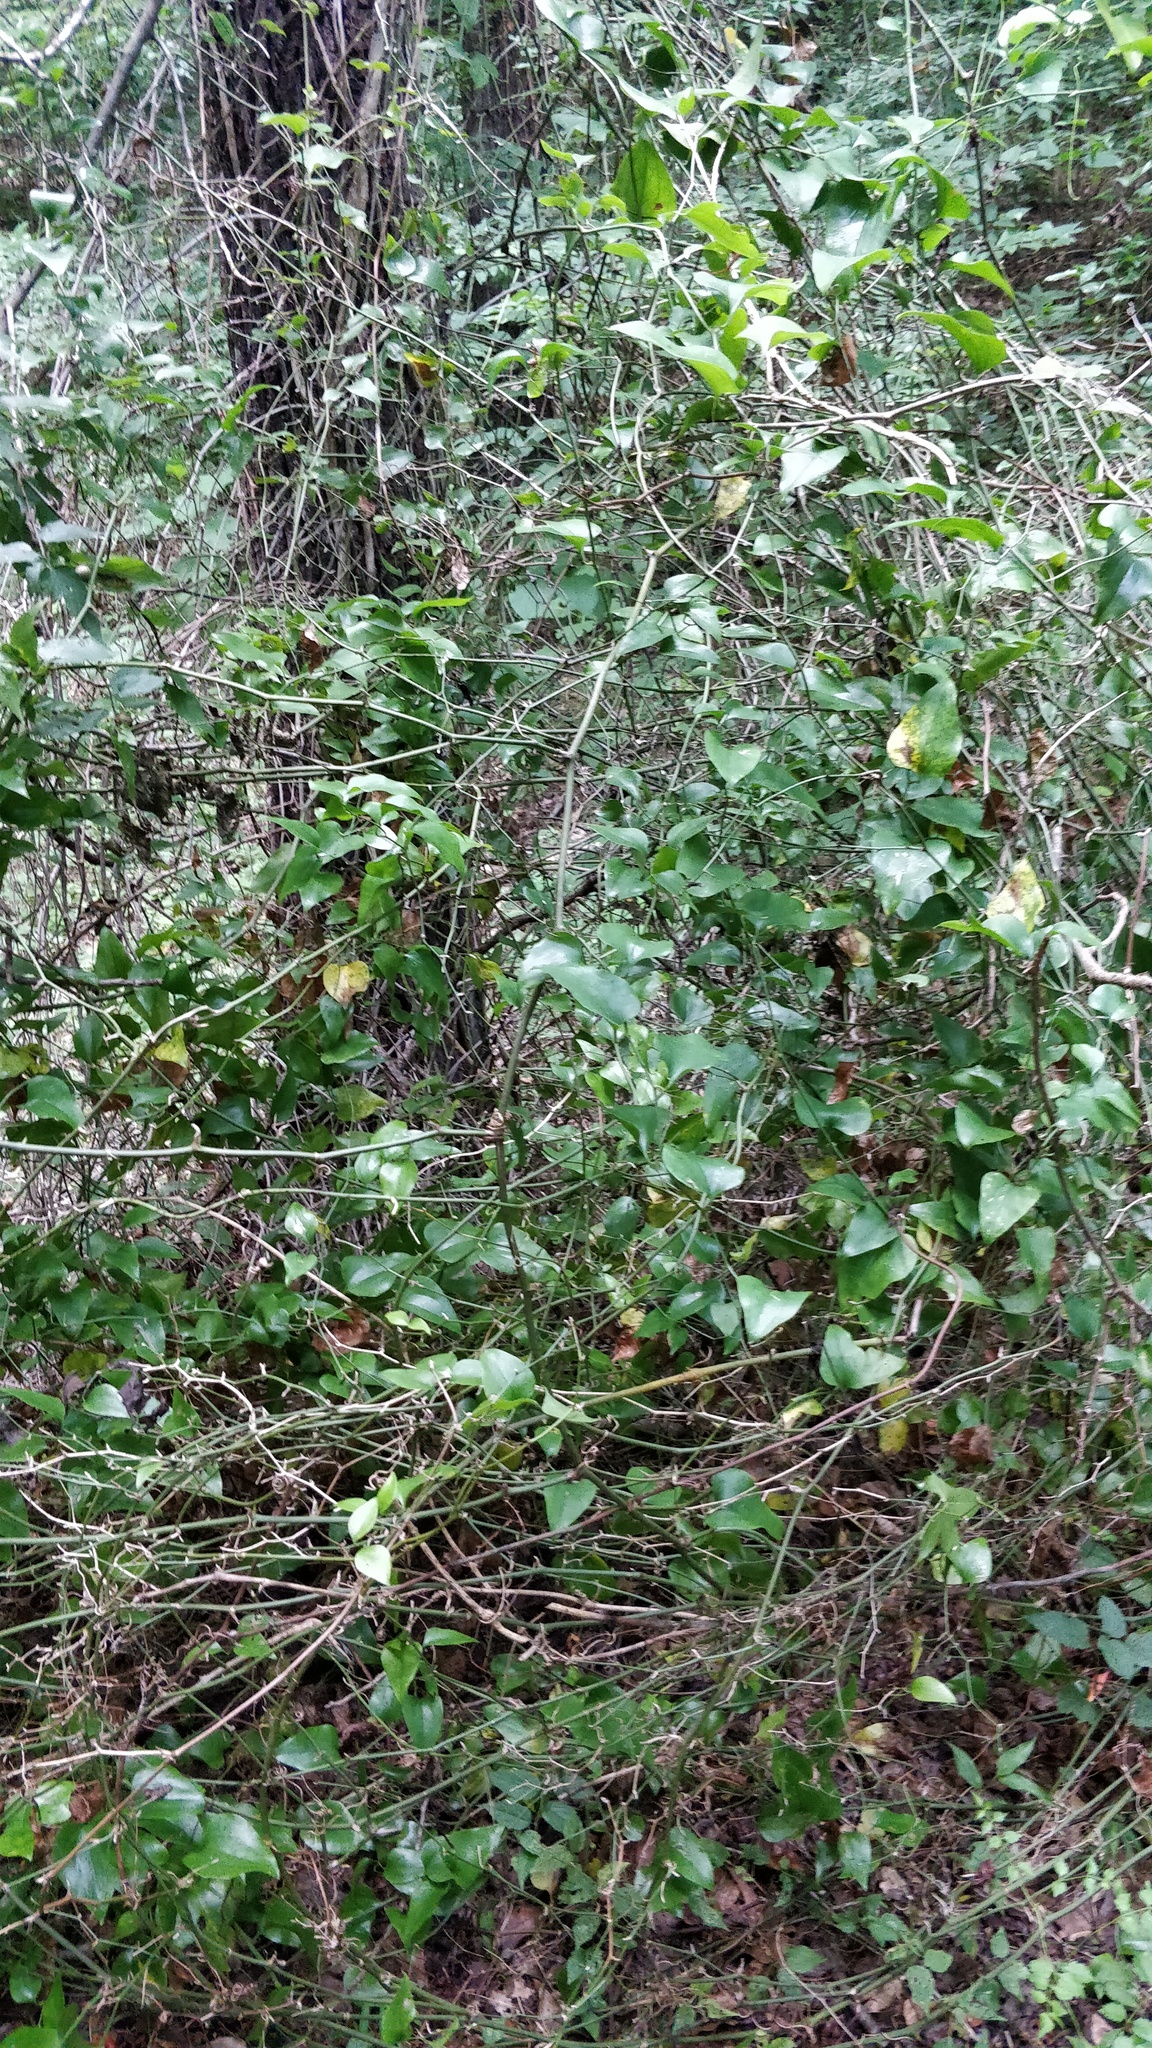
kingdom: Plantae
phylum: Tracheophyta
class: Liliopsida
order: Liliales
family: Smilacaceae
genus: Smilax
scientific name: Smilax rotundifolia
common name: Bullbriar
